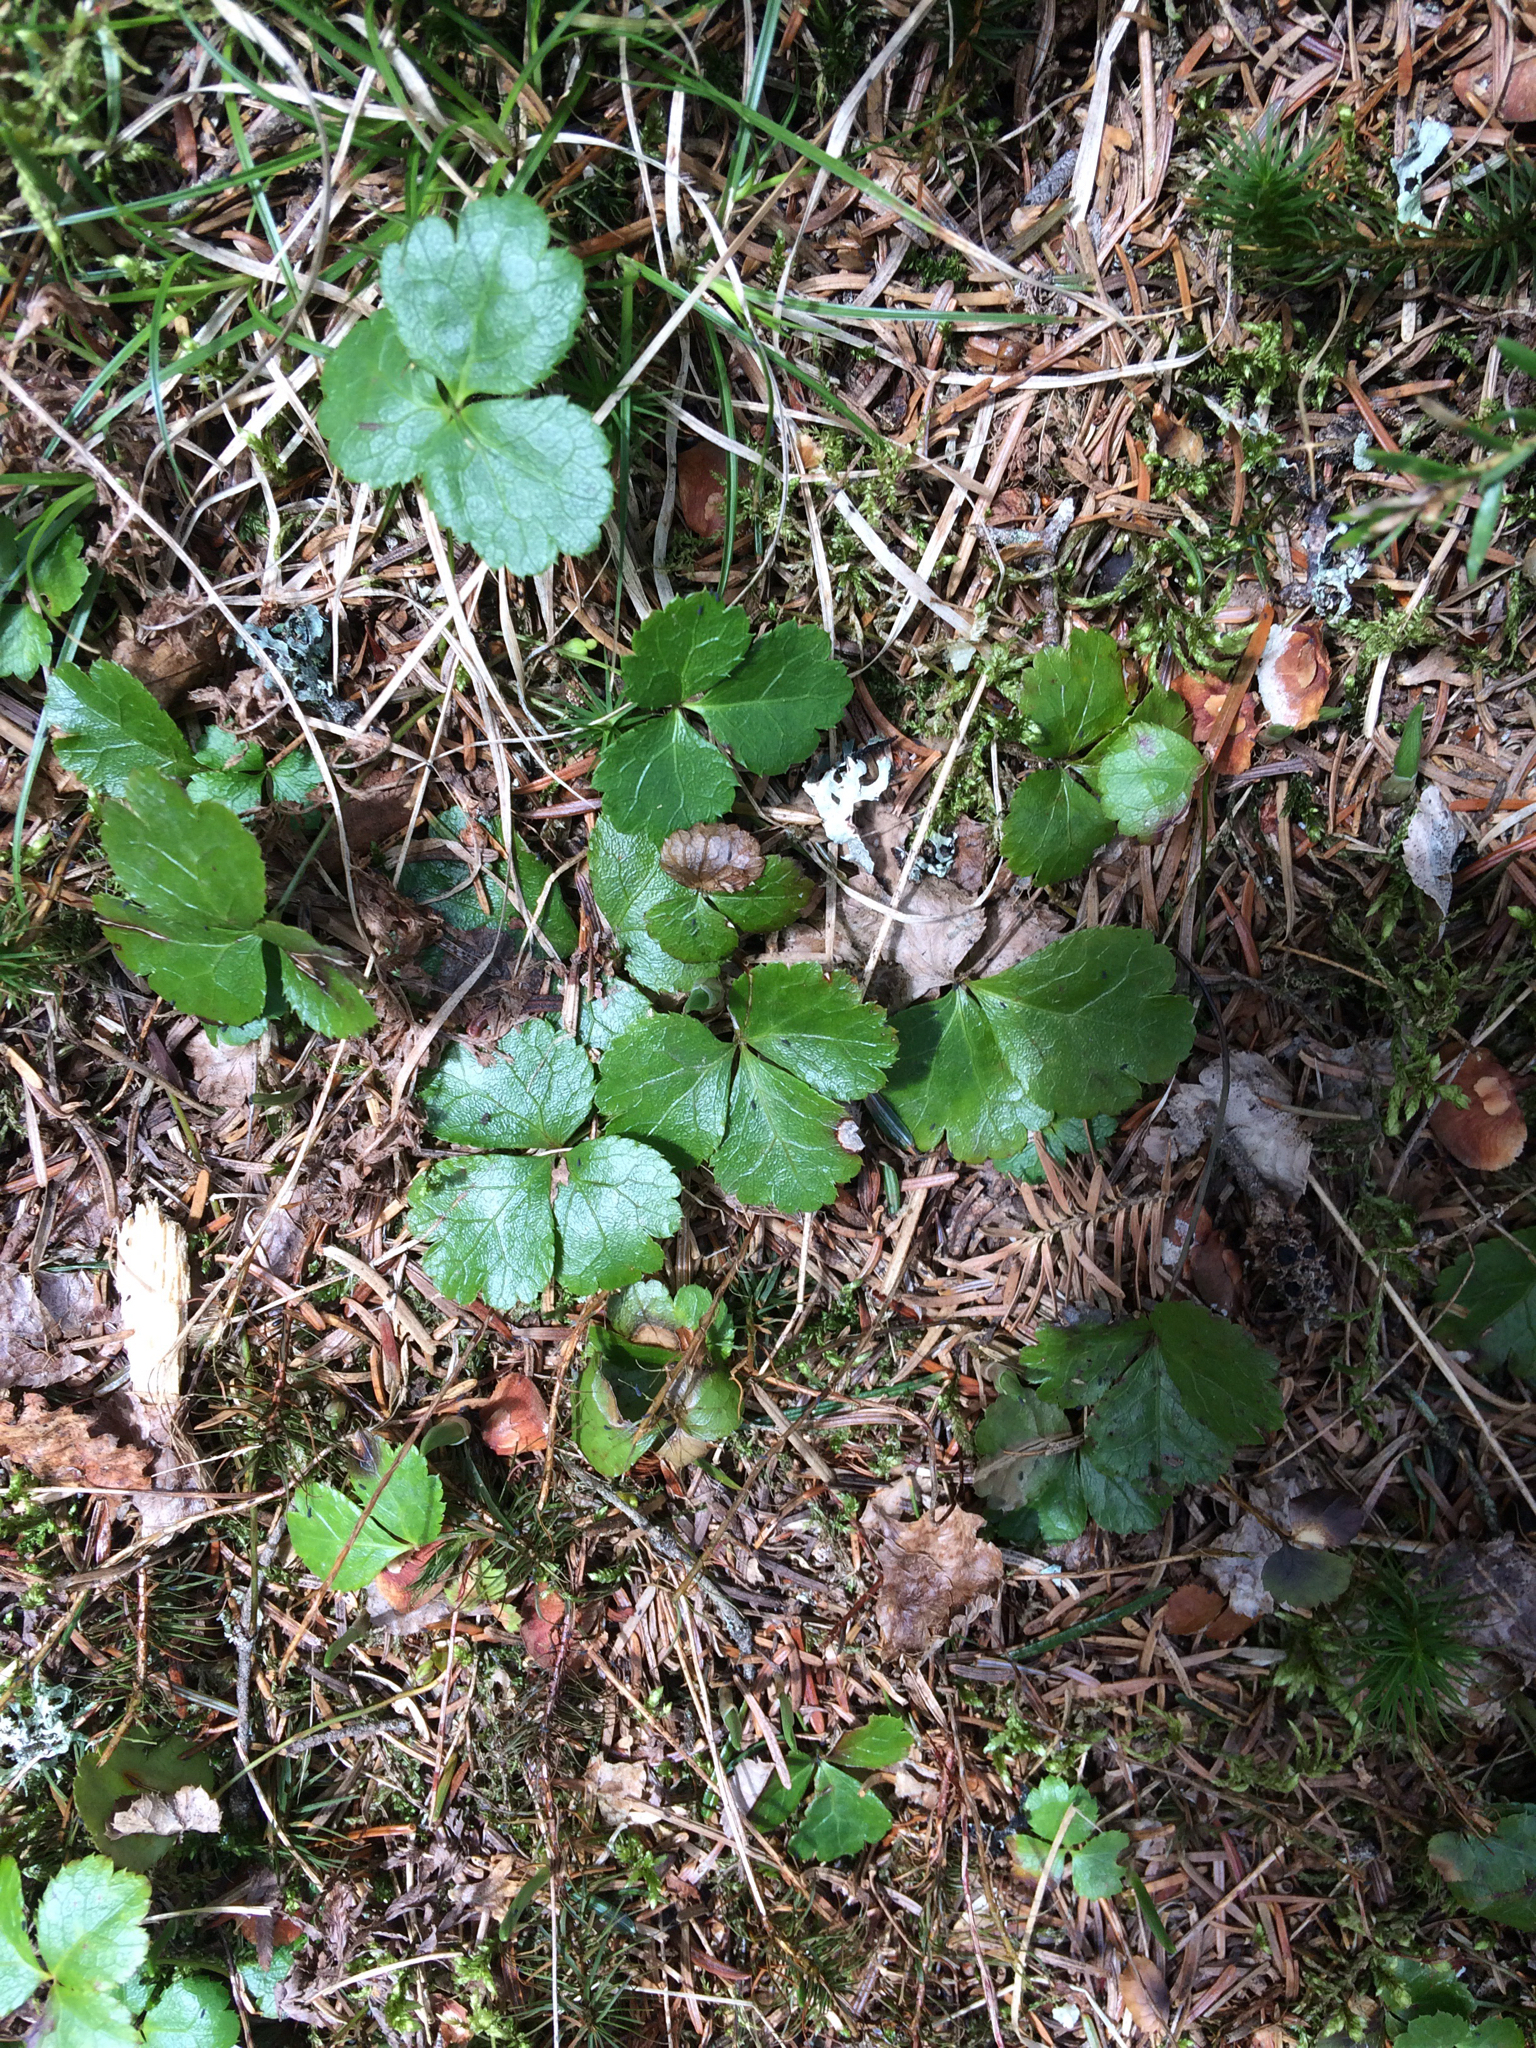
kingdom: Plantae
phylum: Tracheophyta
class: Magnoliopsida
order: Ranunculales
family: Ranunculaceae
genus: Coptis
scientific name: Coptis trifolia
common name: Canker-root
